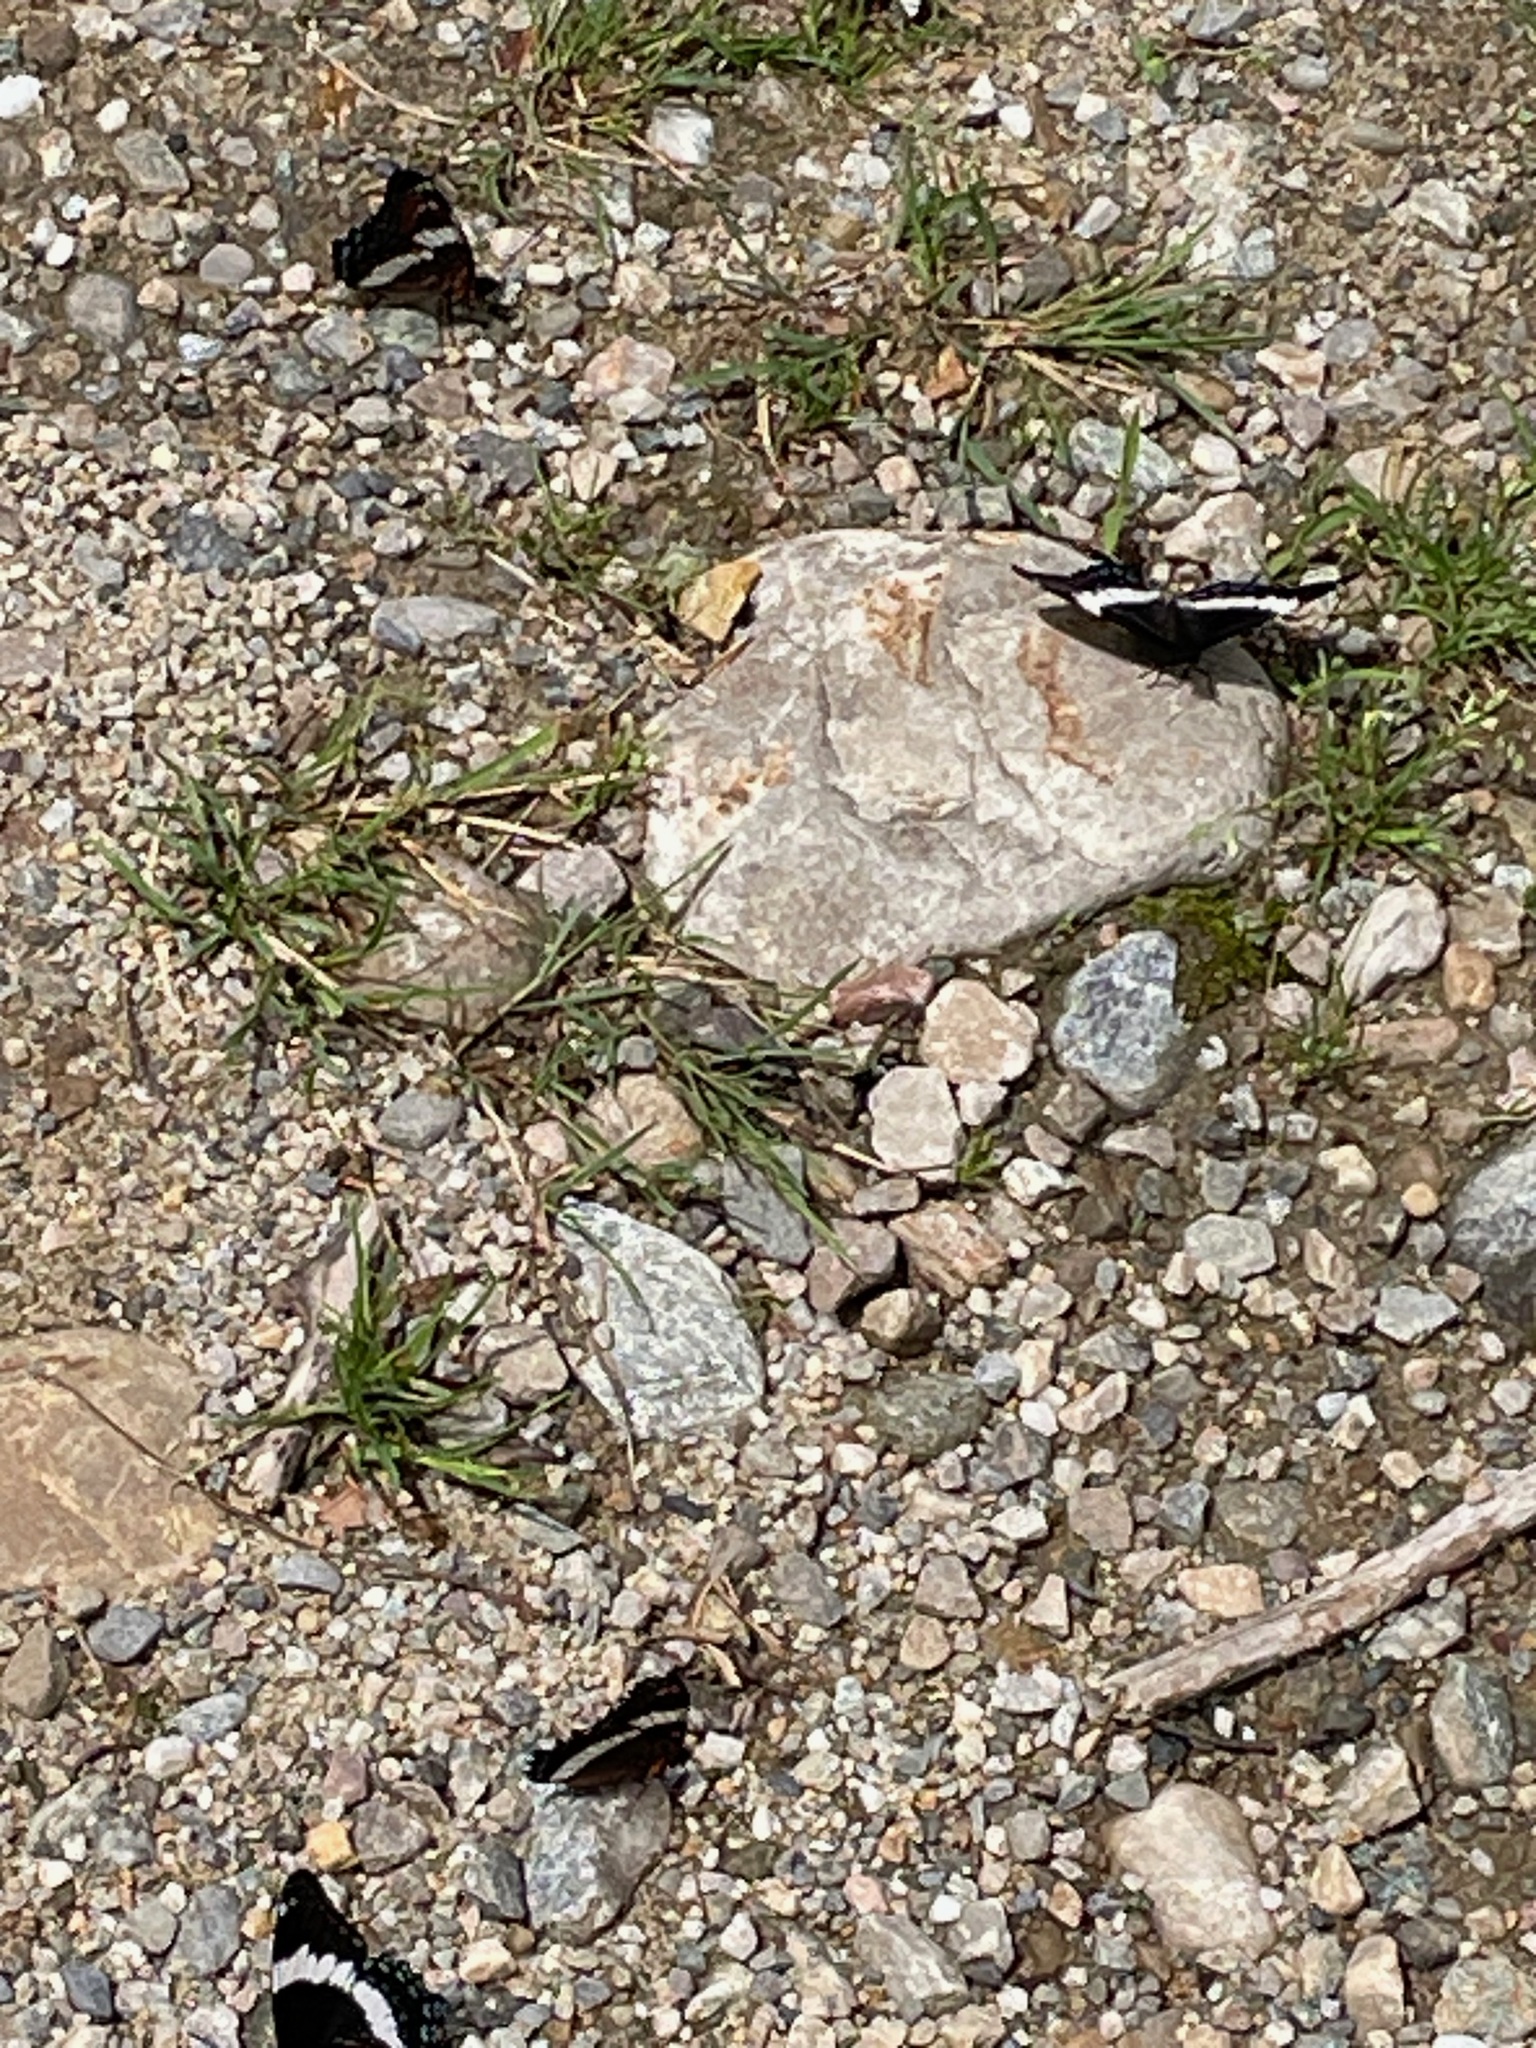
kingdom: Animalia
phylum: Arthropoda
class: Insecta
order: Lepidoptera
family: Nymphalidae
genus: Limenitis
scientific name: Limenitis arthemis
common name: Red-spotted admiral
